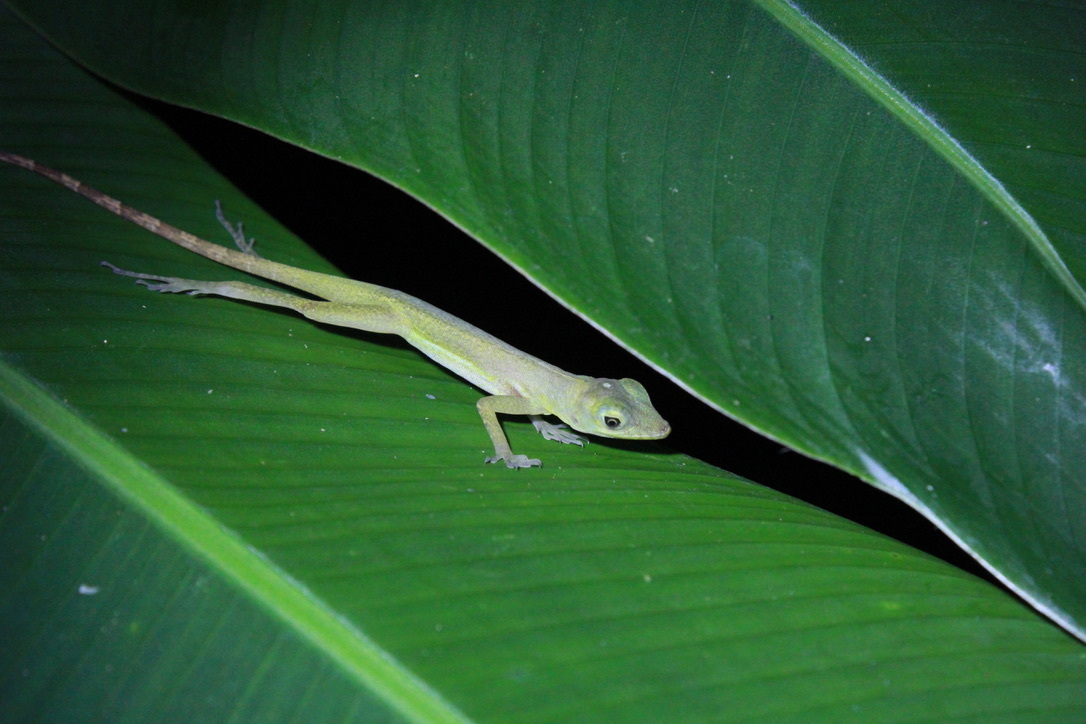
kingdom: Animalia
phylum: Chordata
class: Squamata
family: Dactyloidae
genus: Anolis
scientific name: Anolis richardii
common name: Grenada tree anole
